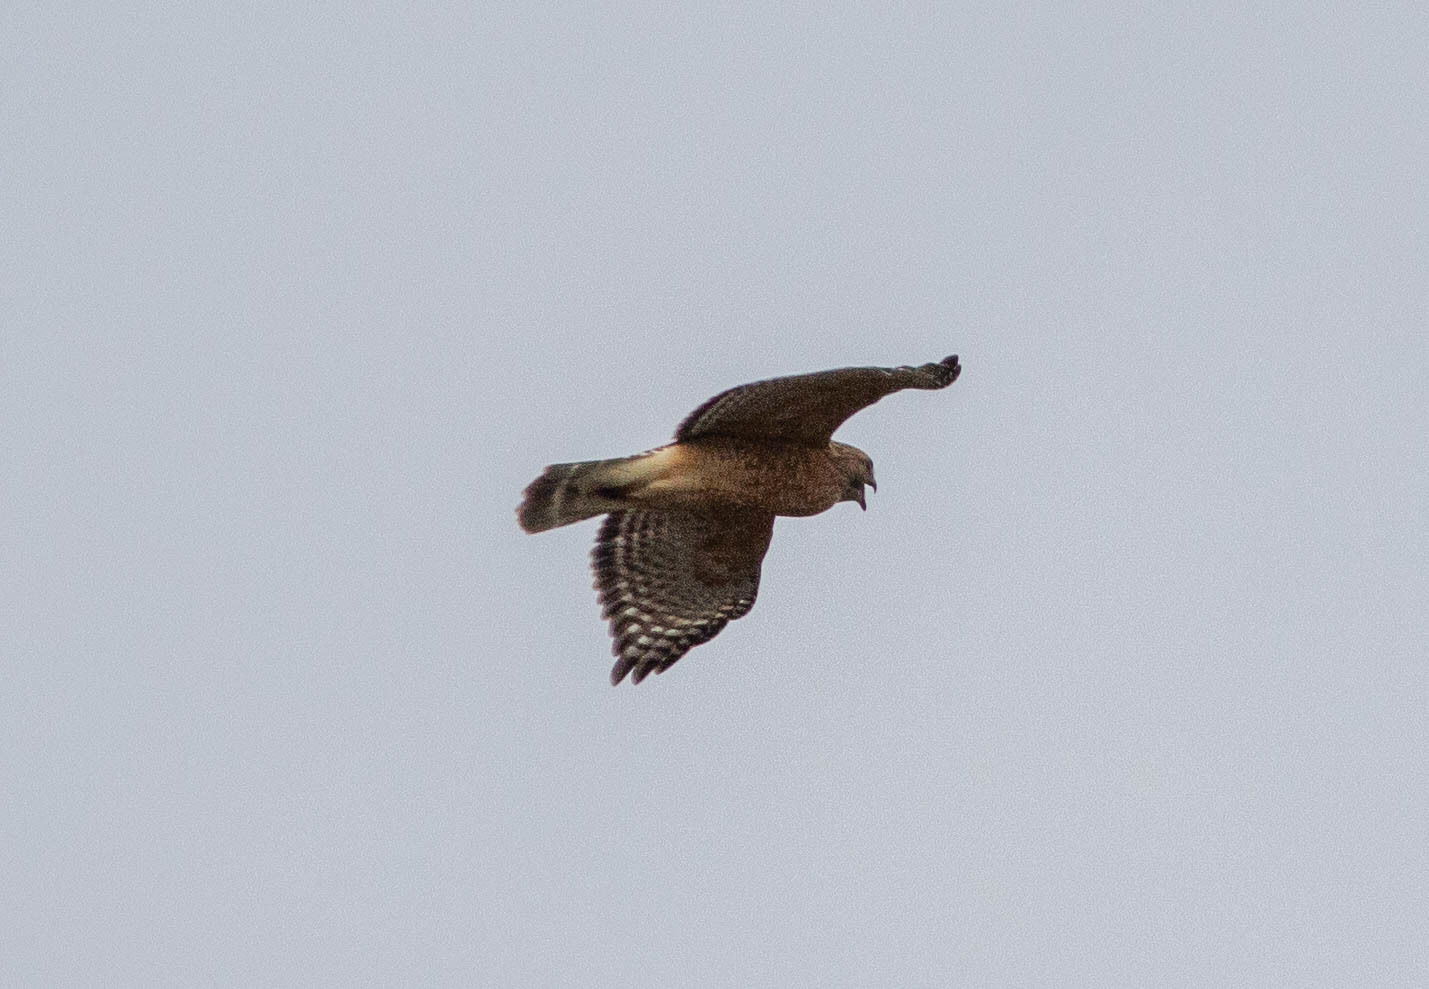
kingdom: Animalia
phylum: Chordata
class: Aves
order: Accipitriformes
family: Accipitridae
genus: Buteo
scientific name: Buteo lineatus
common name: Red-shouldered hawk
